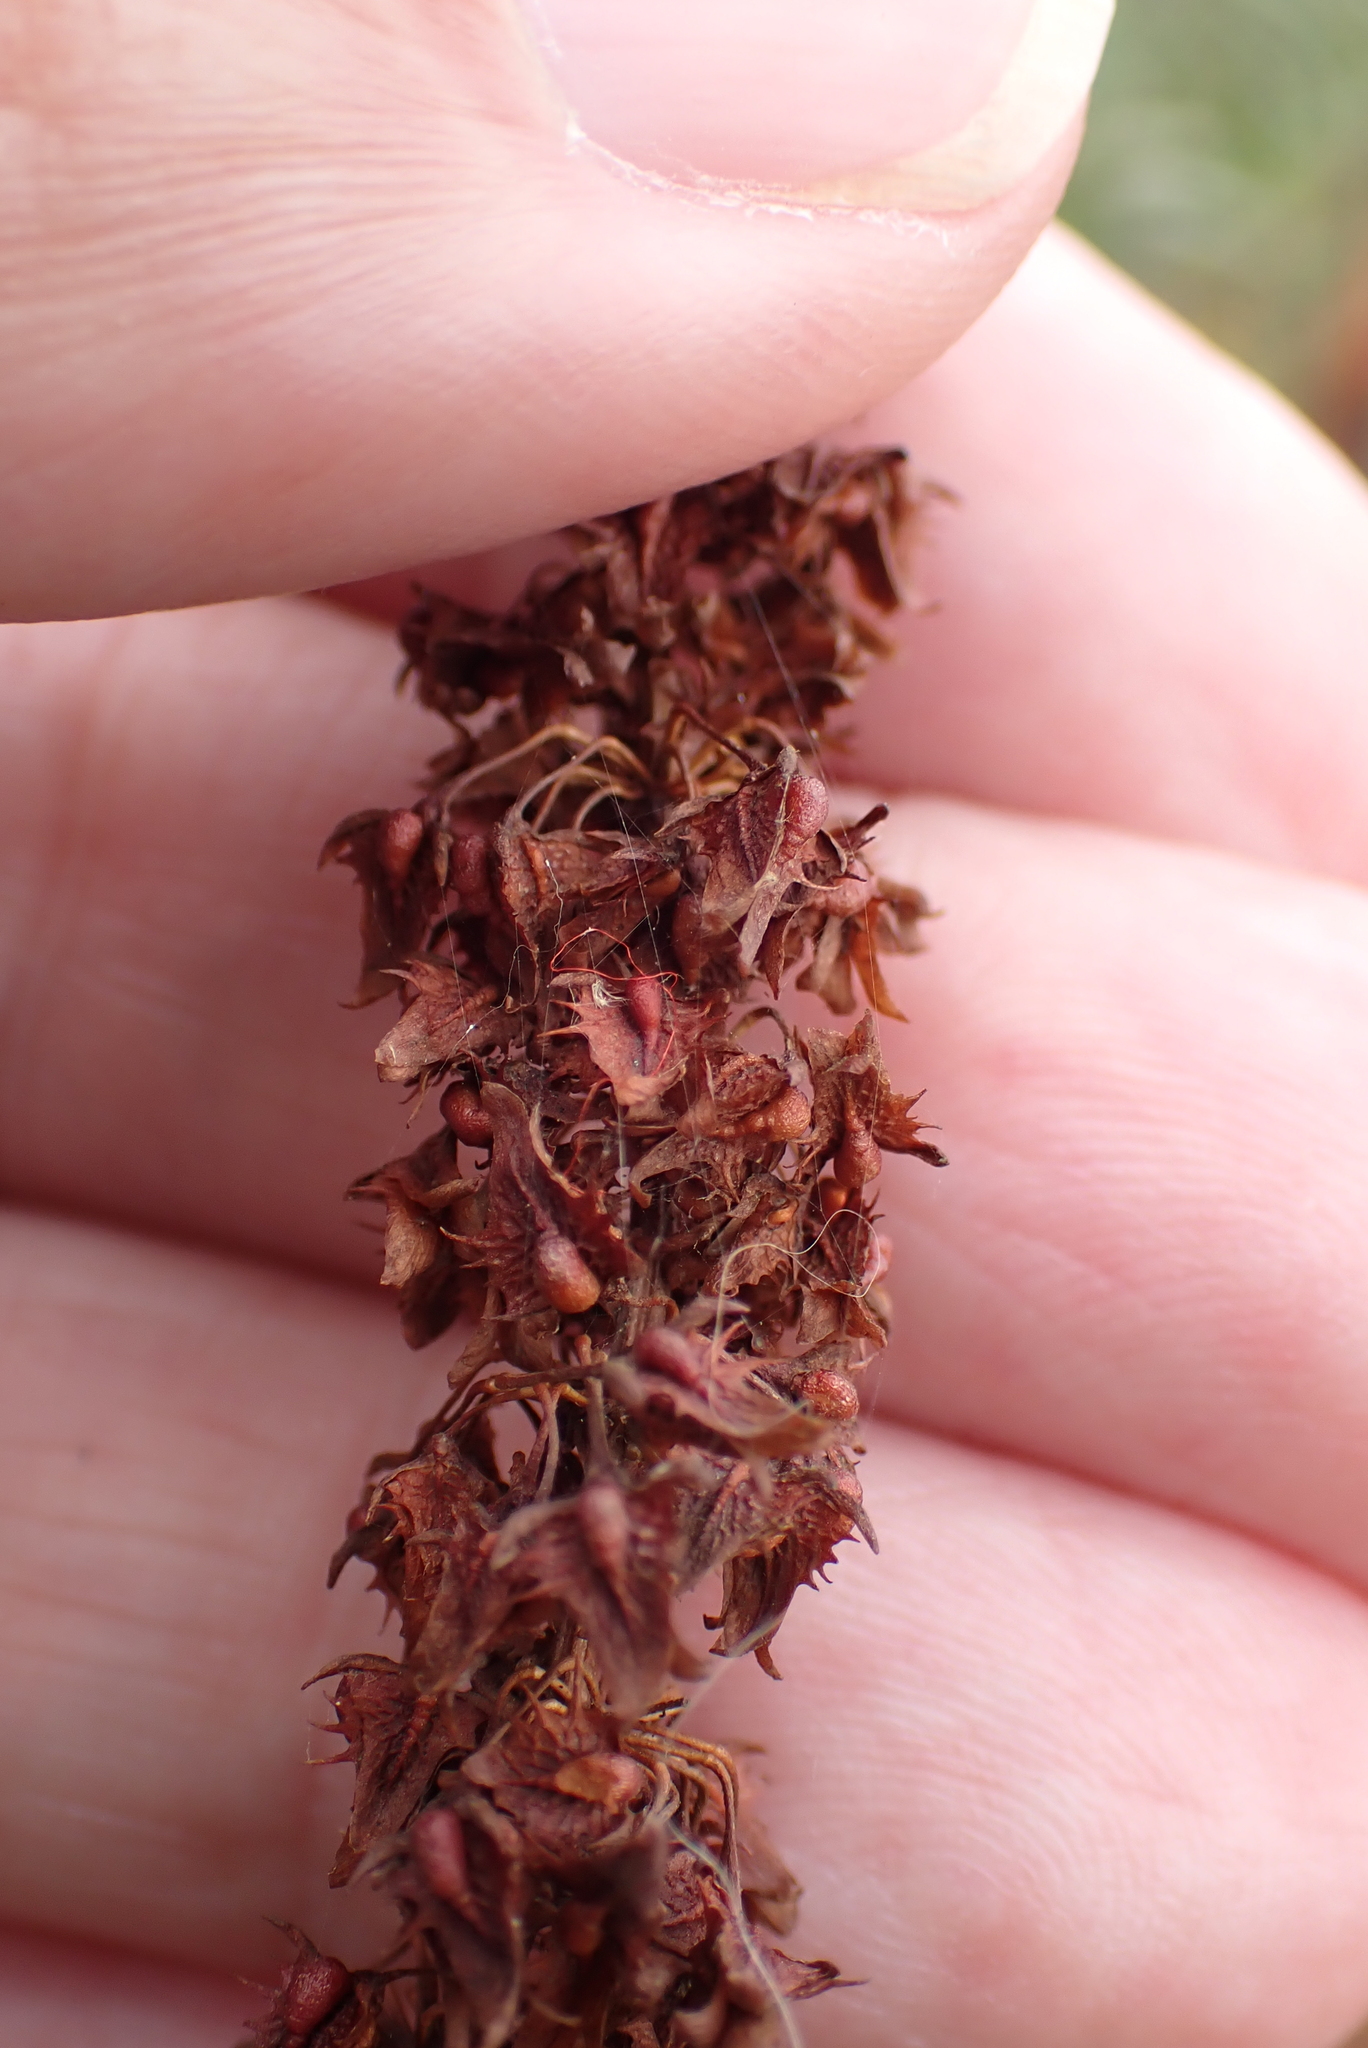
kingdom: Plantae
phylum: Tracheophyta
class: Magnoliopsida
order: Caryophyllales
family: Polygonaceae
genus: Rumex
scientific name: Rumex obtusifolius
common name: Bitter dock
